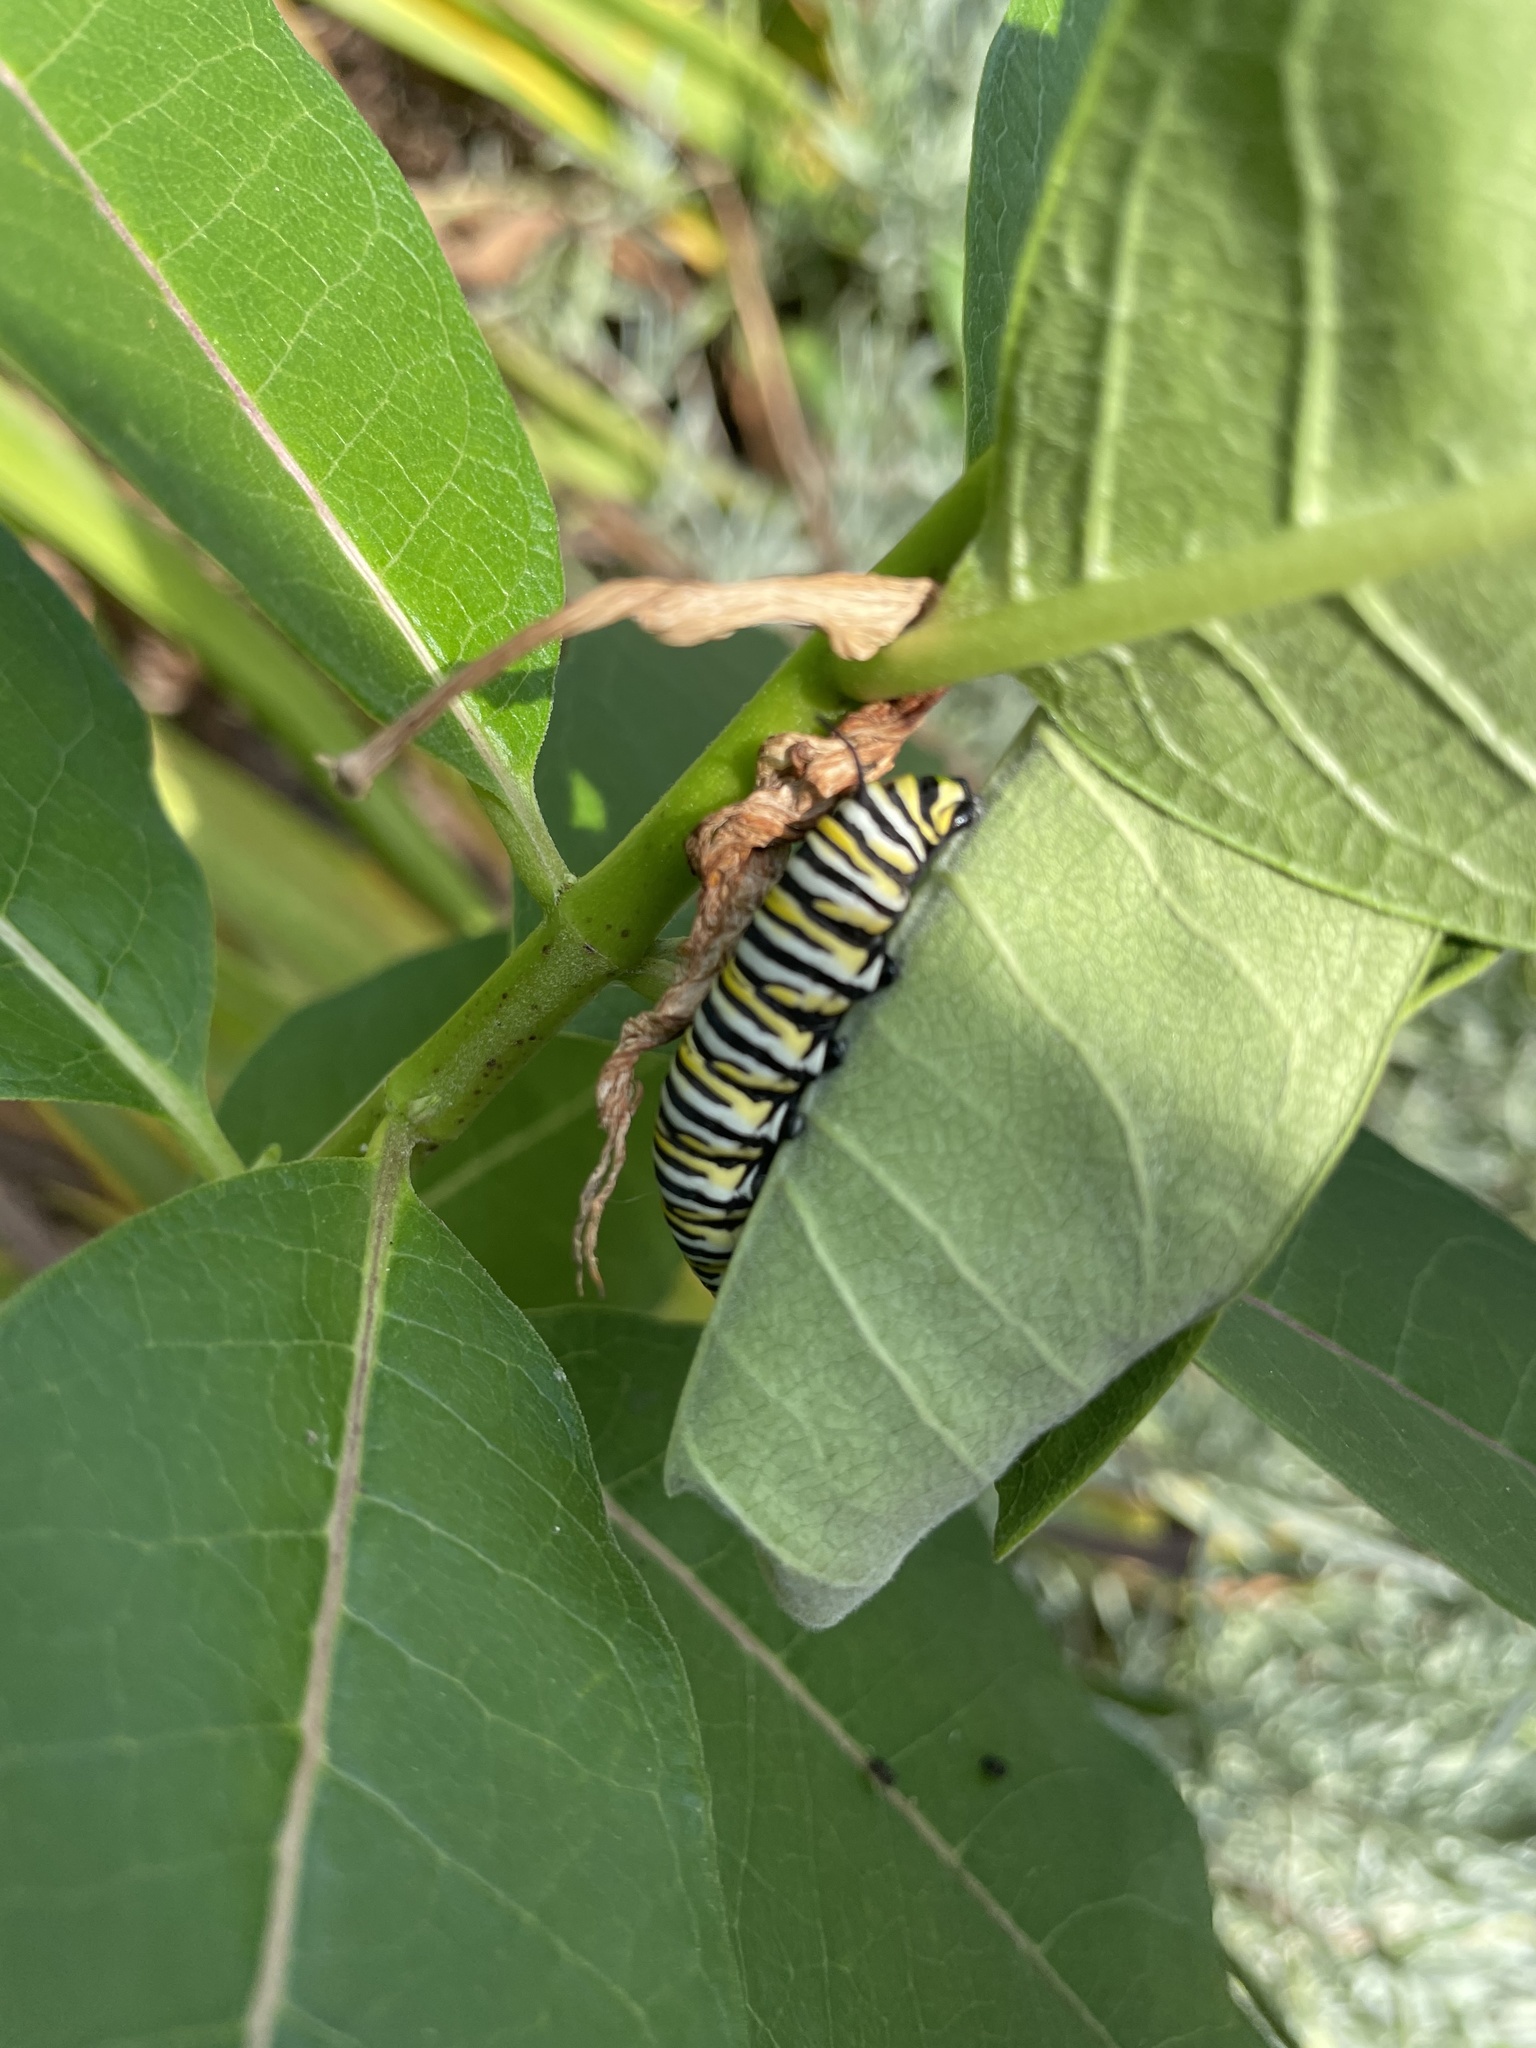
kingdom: Animalia
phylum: Arthropoda
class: Insecta
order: Lepidoptera
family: Nymphalidae
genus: Danaus
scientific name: Danaus plexippus
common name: Monarch
